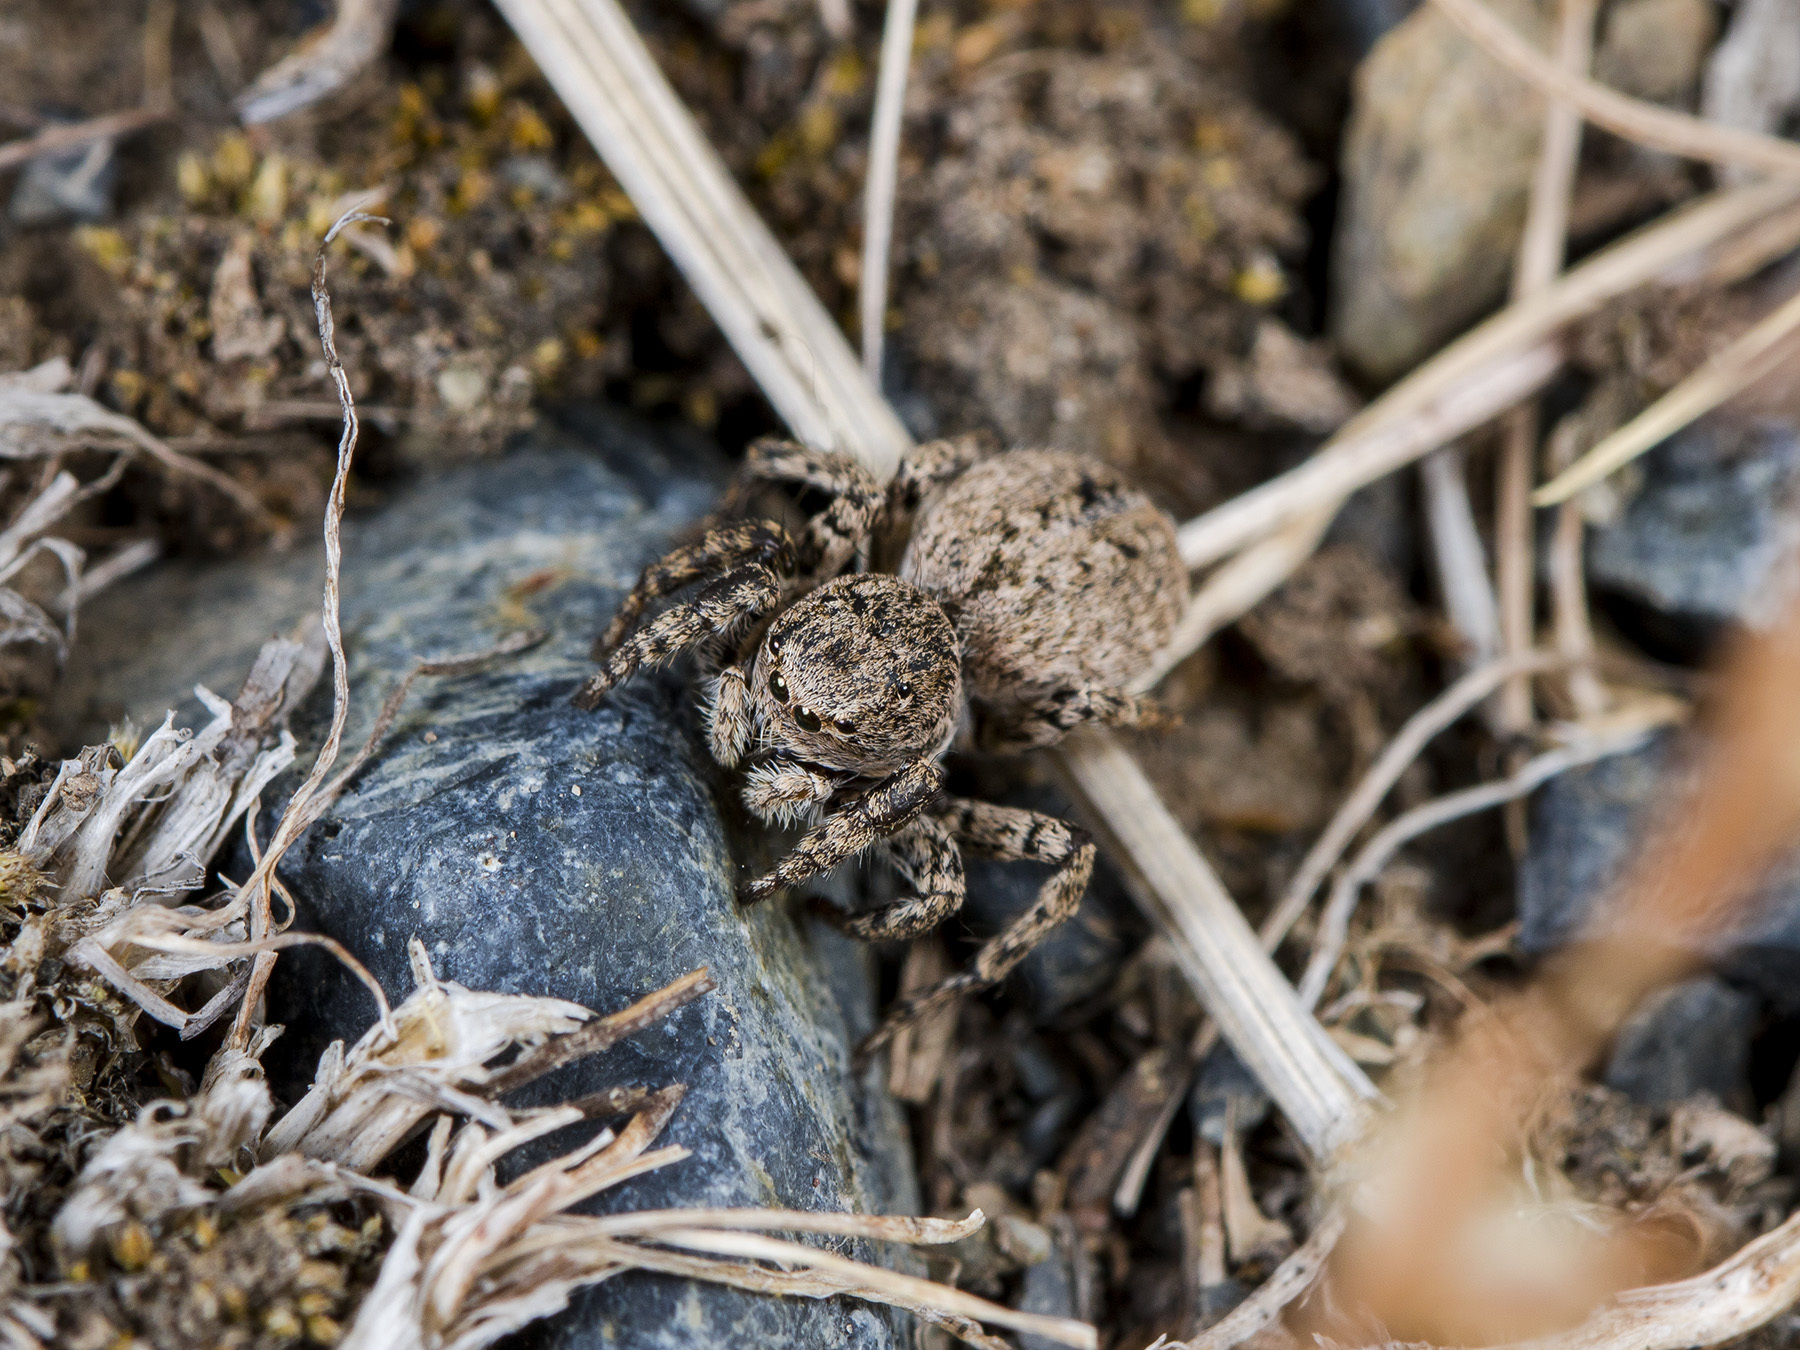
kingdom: Animalia
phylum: Arthropoda
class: Arachnida
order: Araneae
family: Salticidae
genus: Aelurillus
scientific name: Aelurillus v-insignitus
